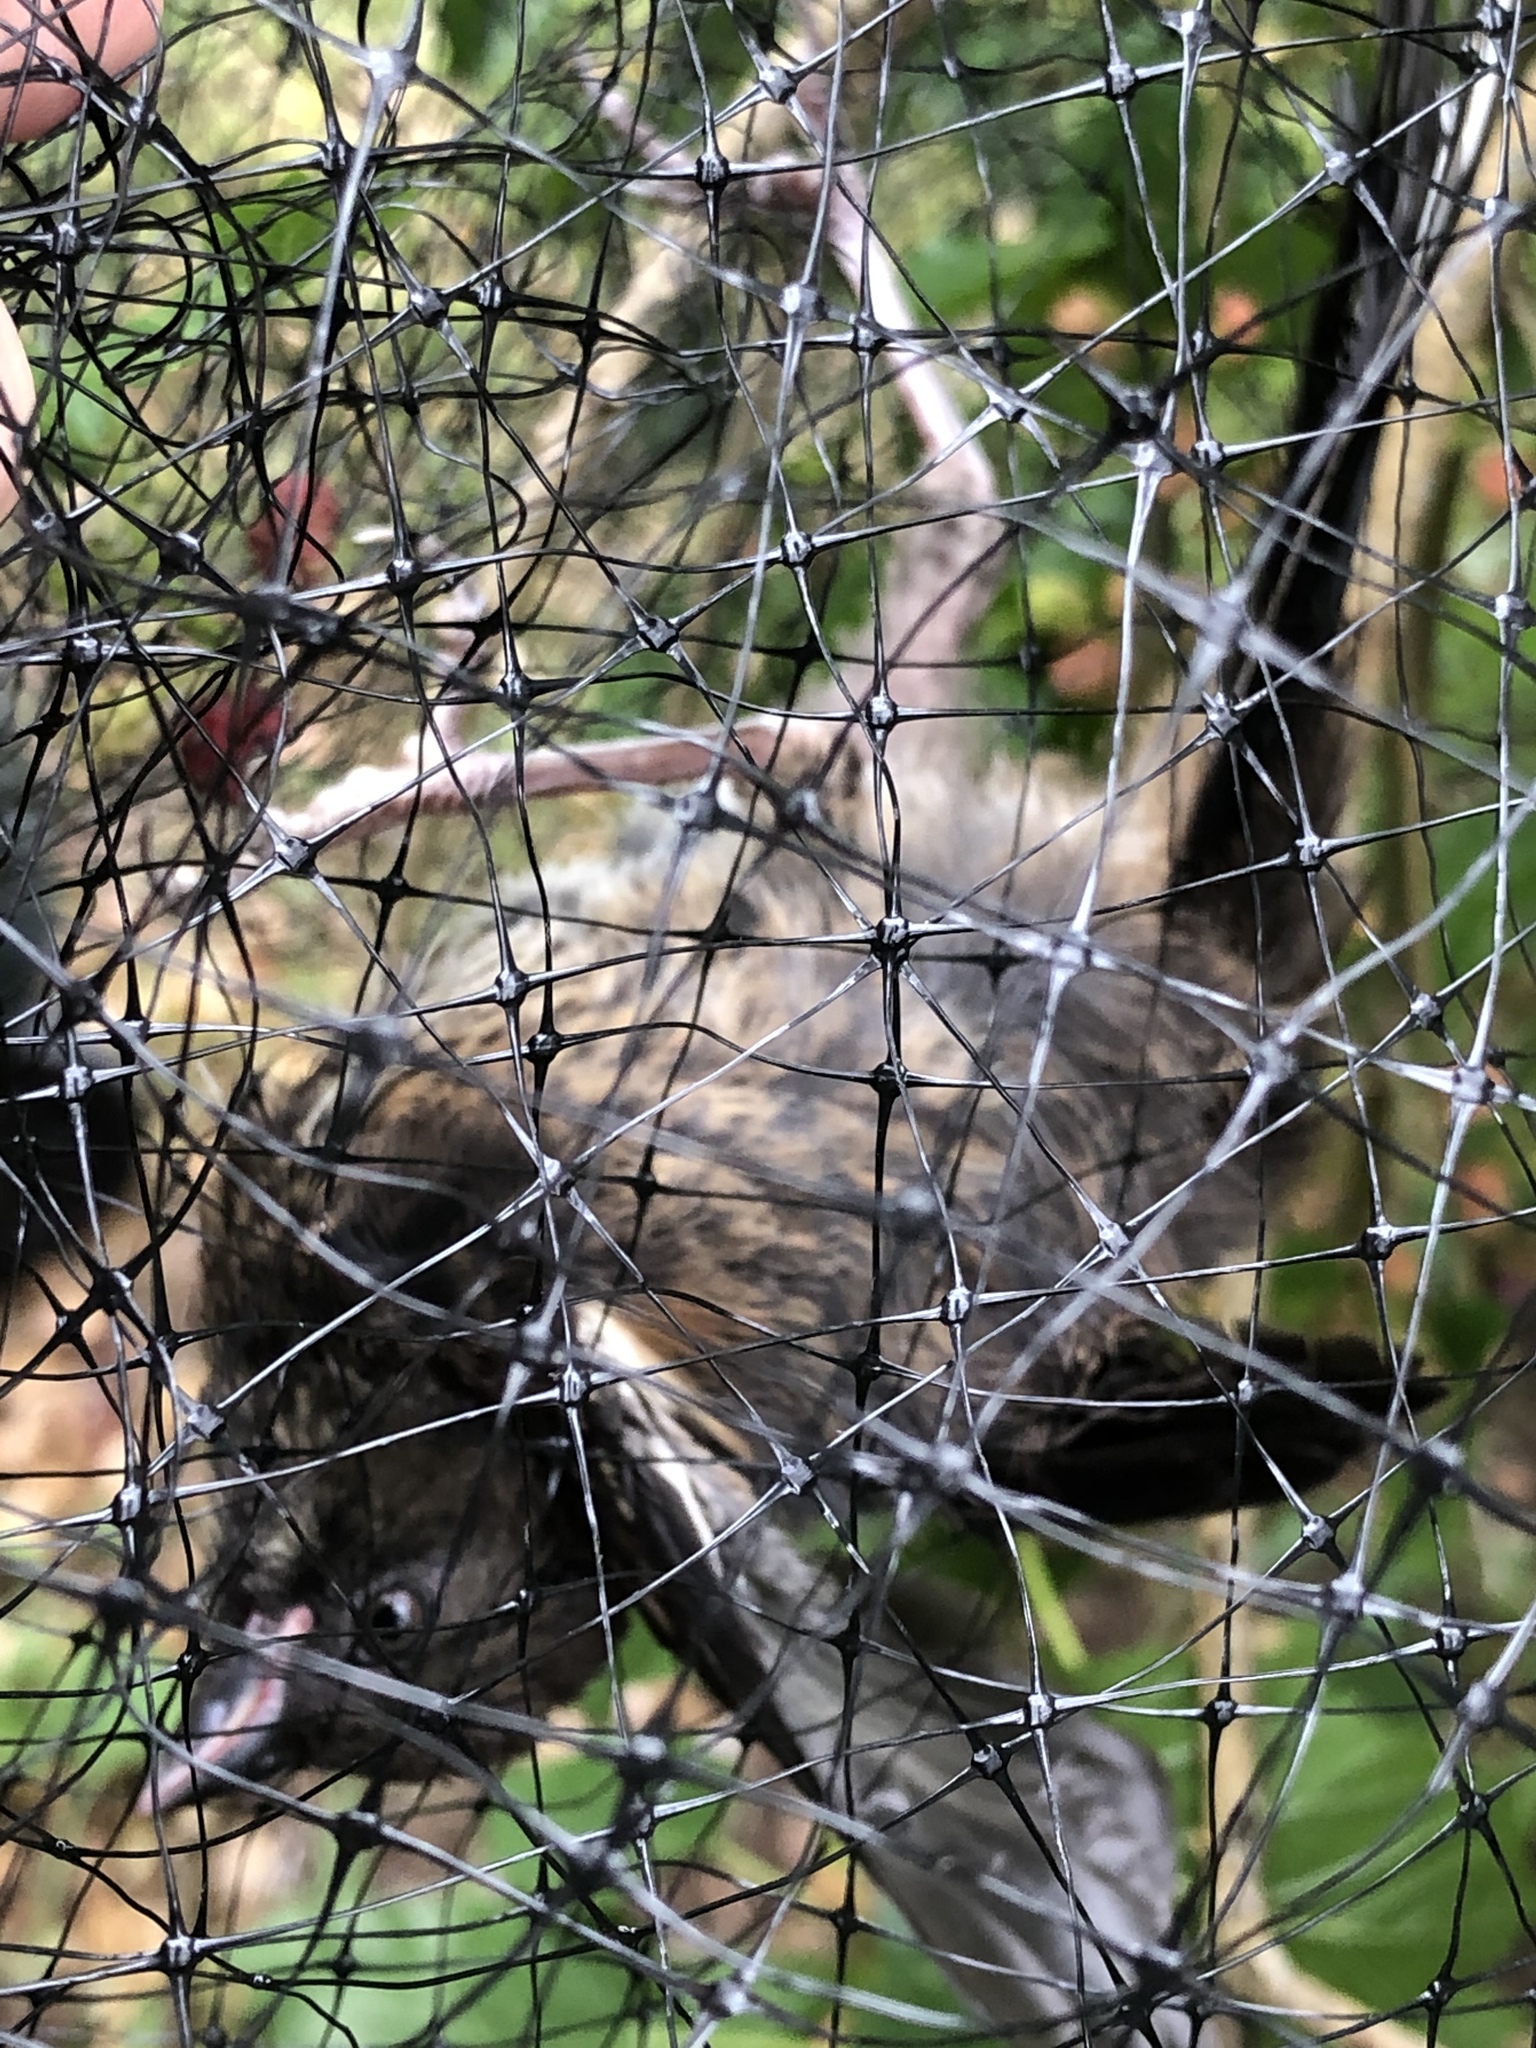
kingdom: Animalia
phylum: Chordata
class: Aves
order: Passeriformes
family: Passerellidae
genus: Pipilo
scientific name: Pipilo maculatus
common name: Spotted towhee
